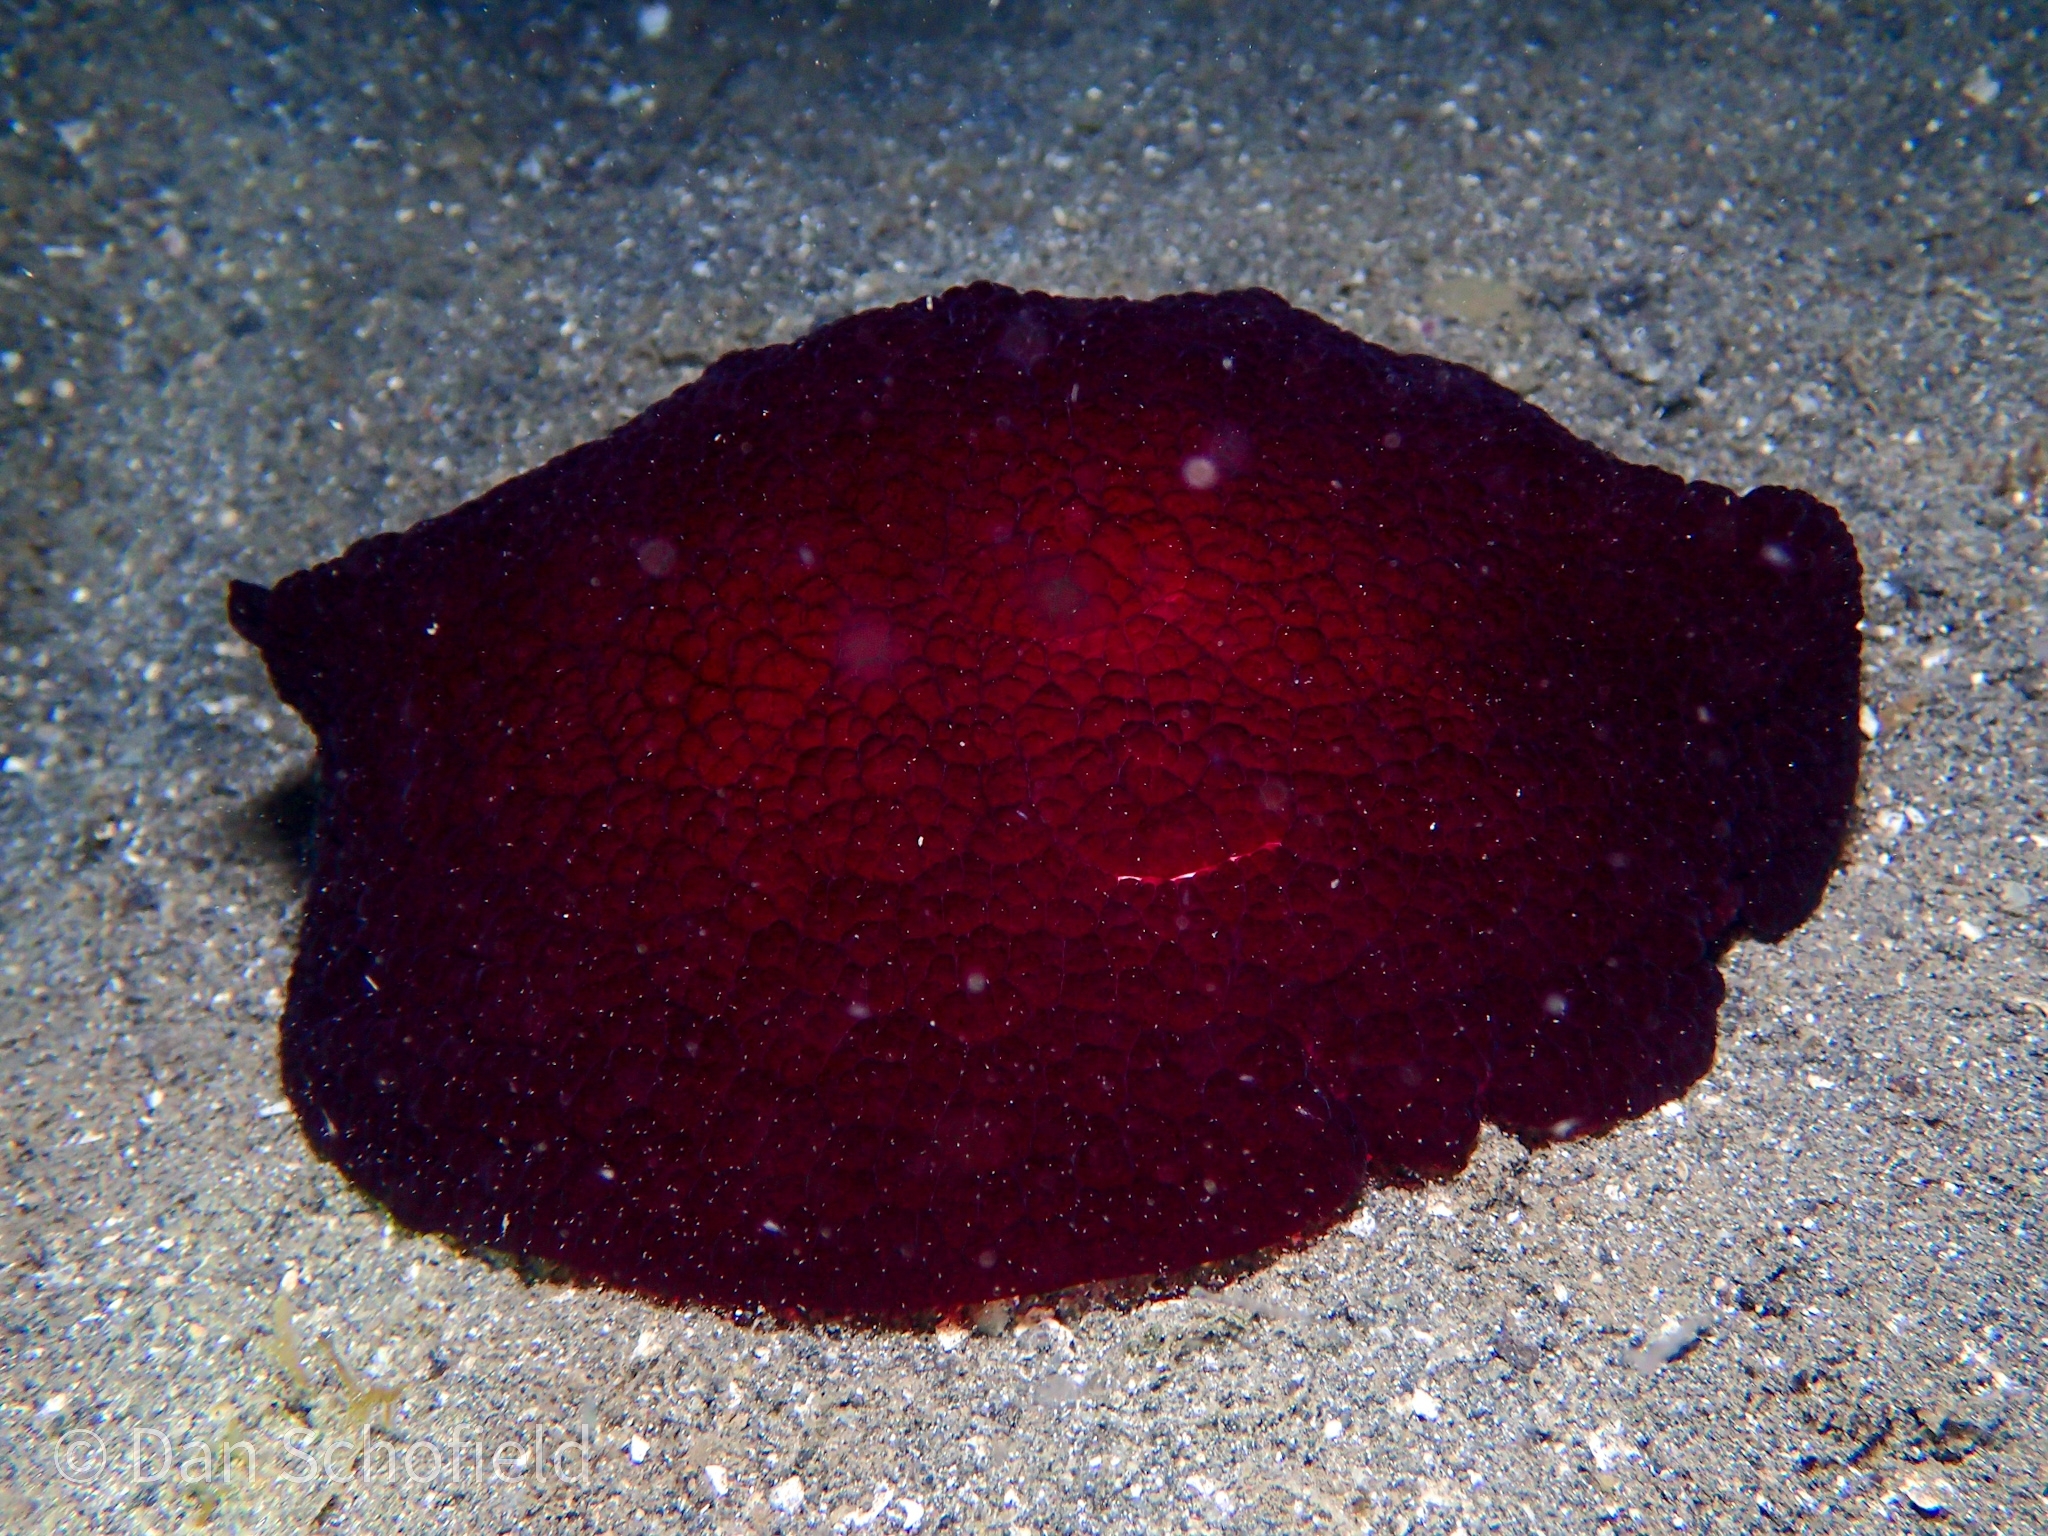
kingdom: Animalia
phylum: Mollusca
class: Gastropoda
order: Pleurobranchida
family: Pleurobranchidae
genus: Pleurobranchus
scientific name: Pleurobranchus forskalii
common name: Forskal's side-gilled sea slug
